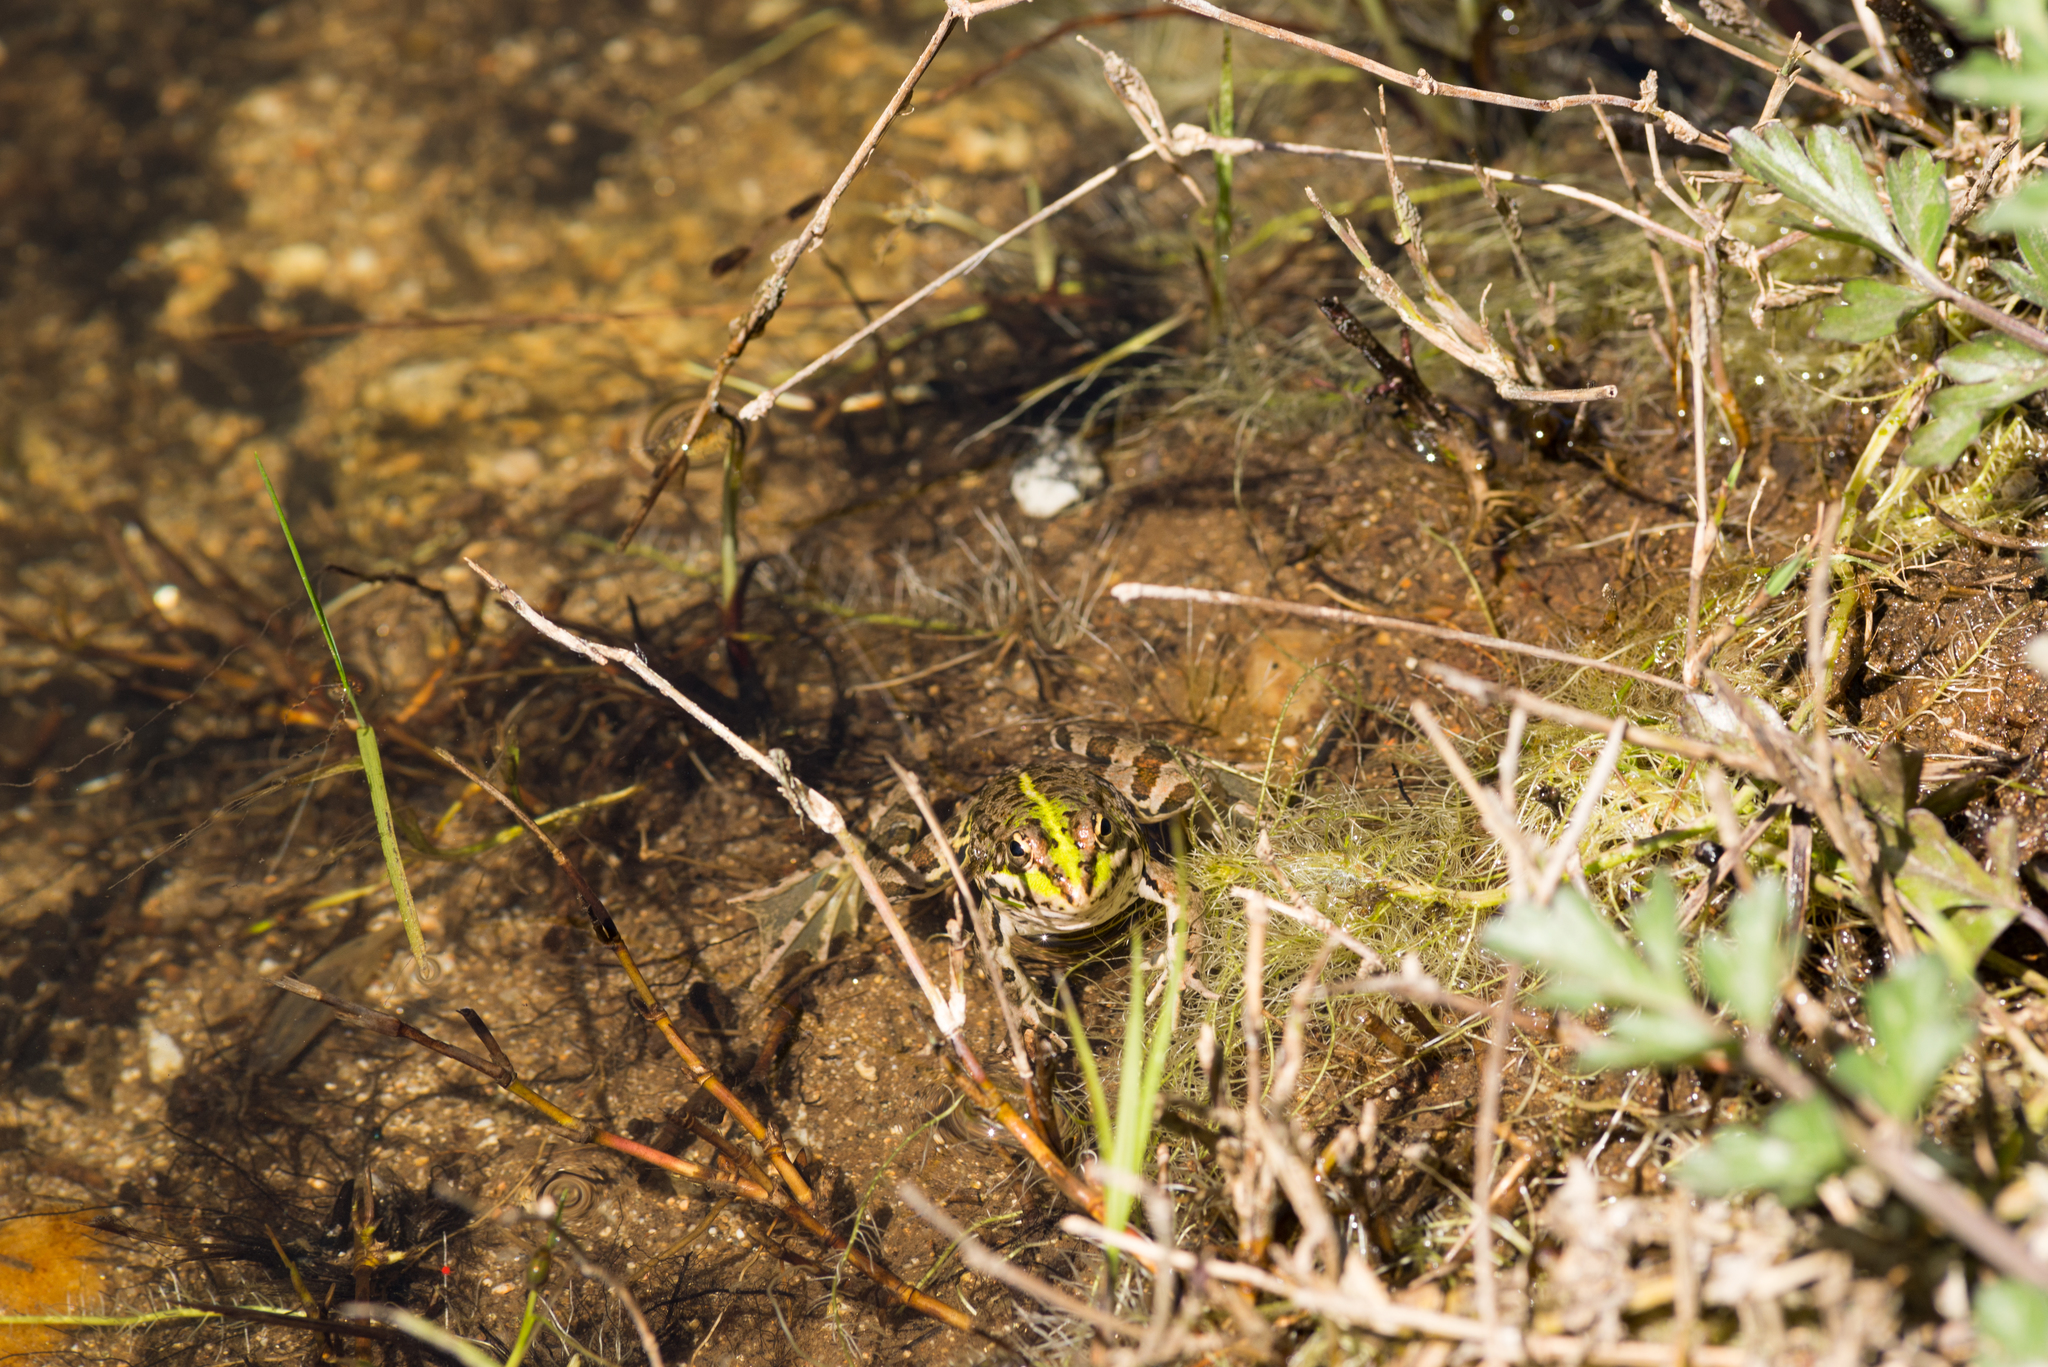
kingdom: Animalia
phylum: Chordata
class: Amphibia
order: Anura
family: Ranidae
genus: Pelophylax
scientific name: Pelophylax perezi
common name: Perez's frog
